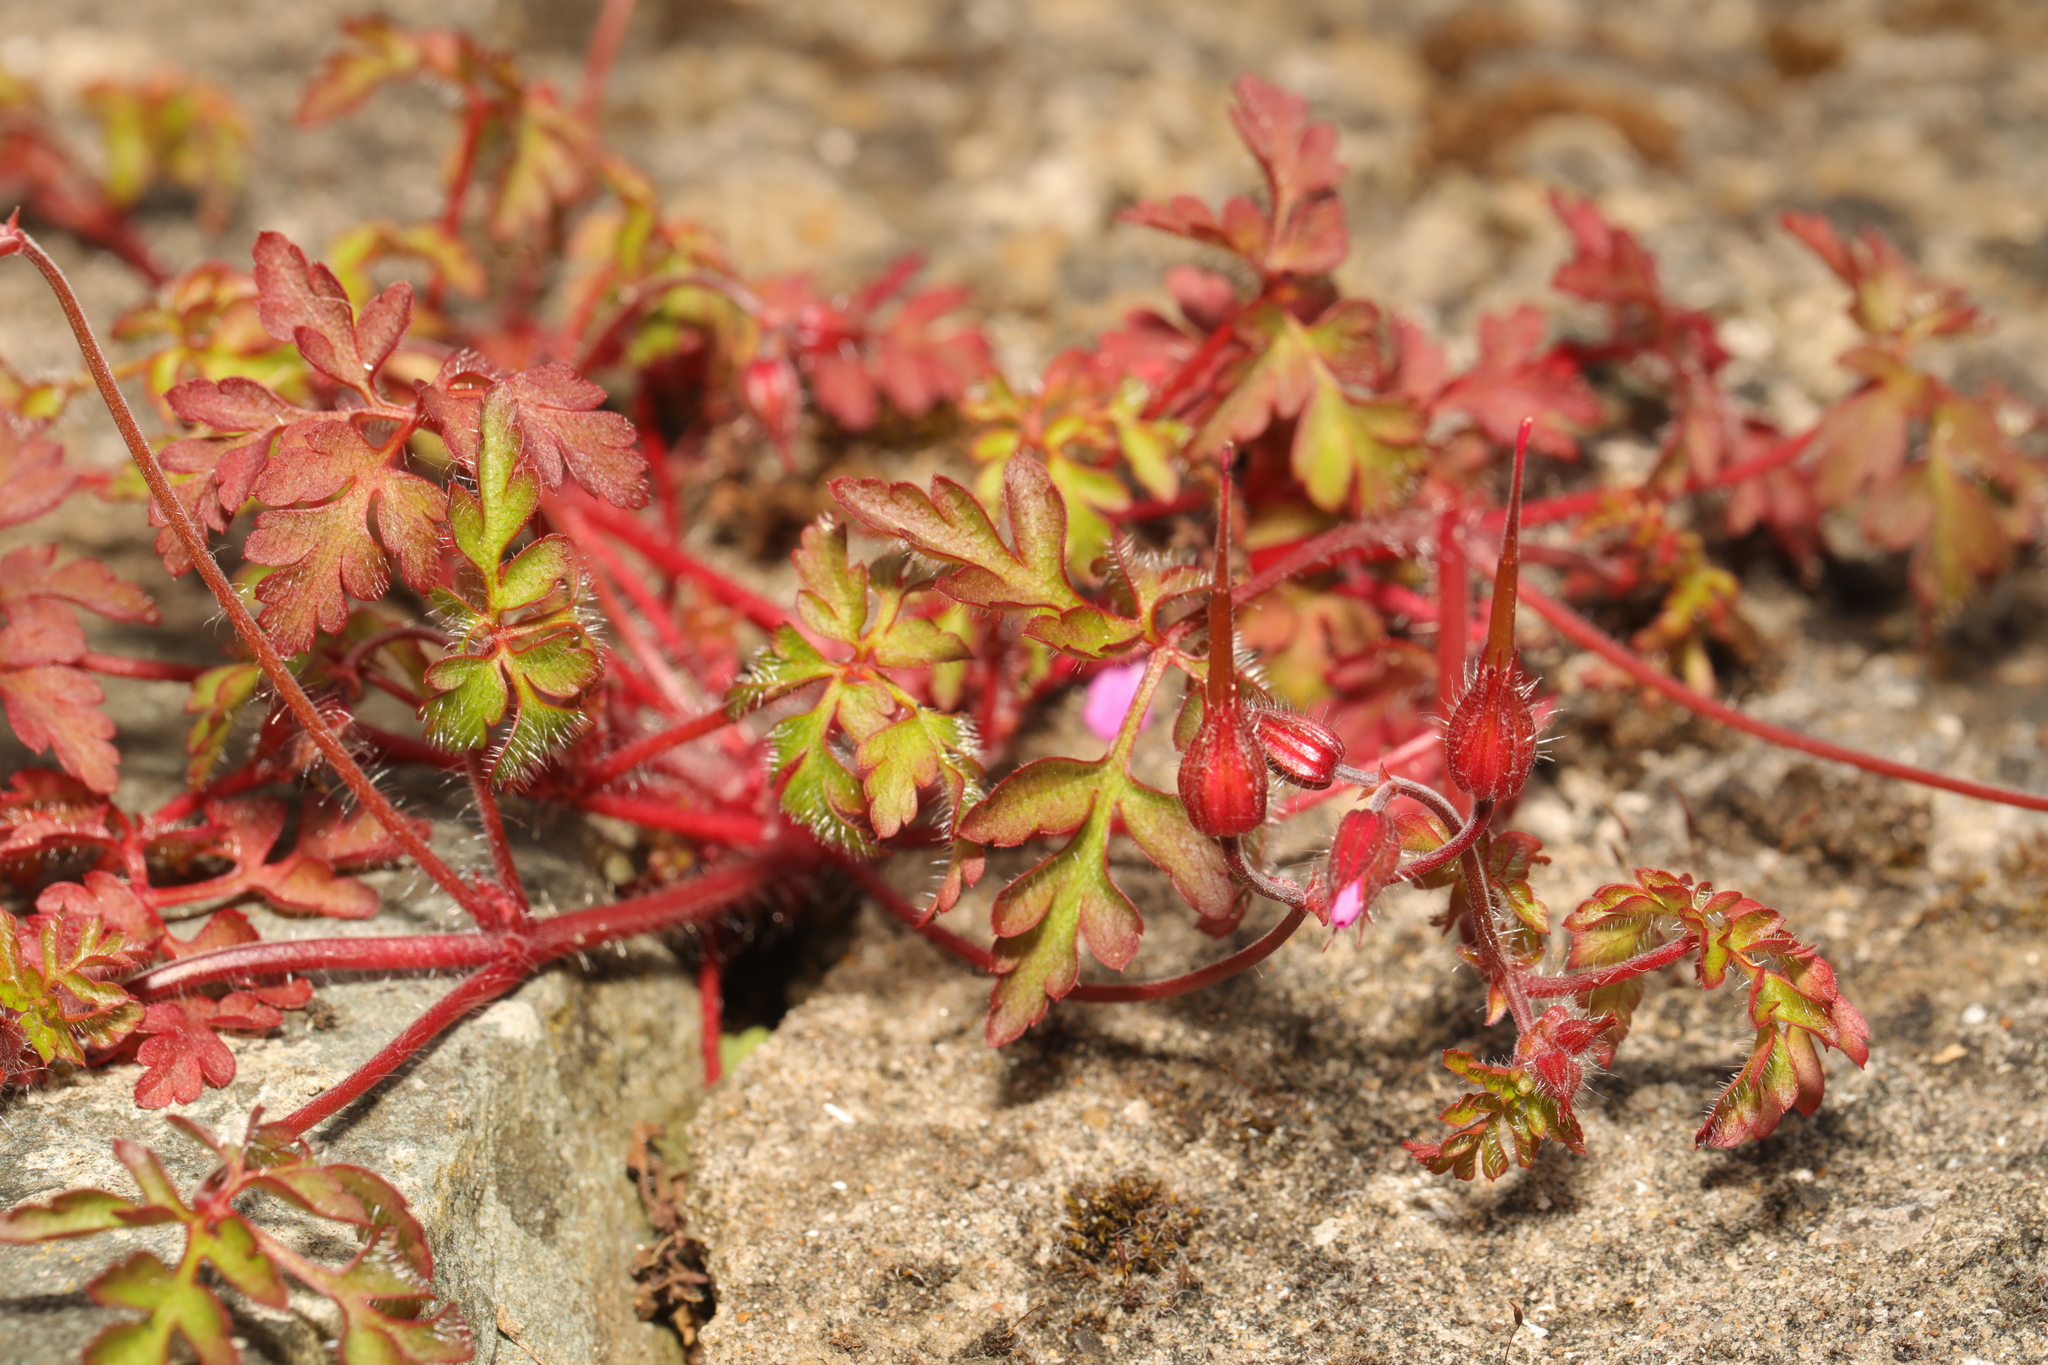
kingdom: Plantae
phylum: Tracheophyta
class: Magnoliopsida
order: Geraniales
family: Geraniaceae
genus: Geranium
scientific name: Geranium robertianum
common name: Herb-robert
